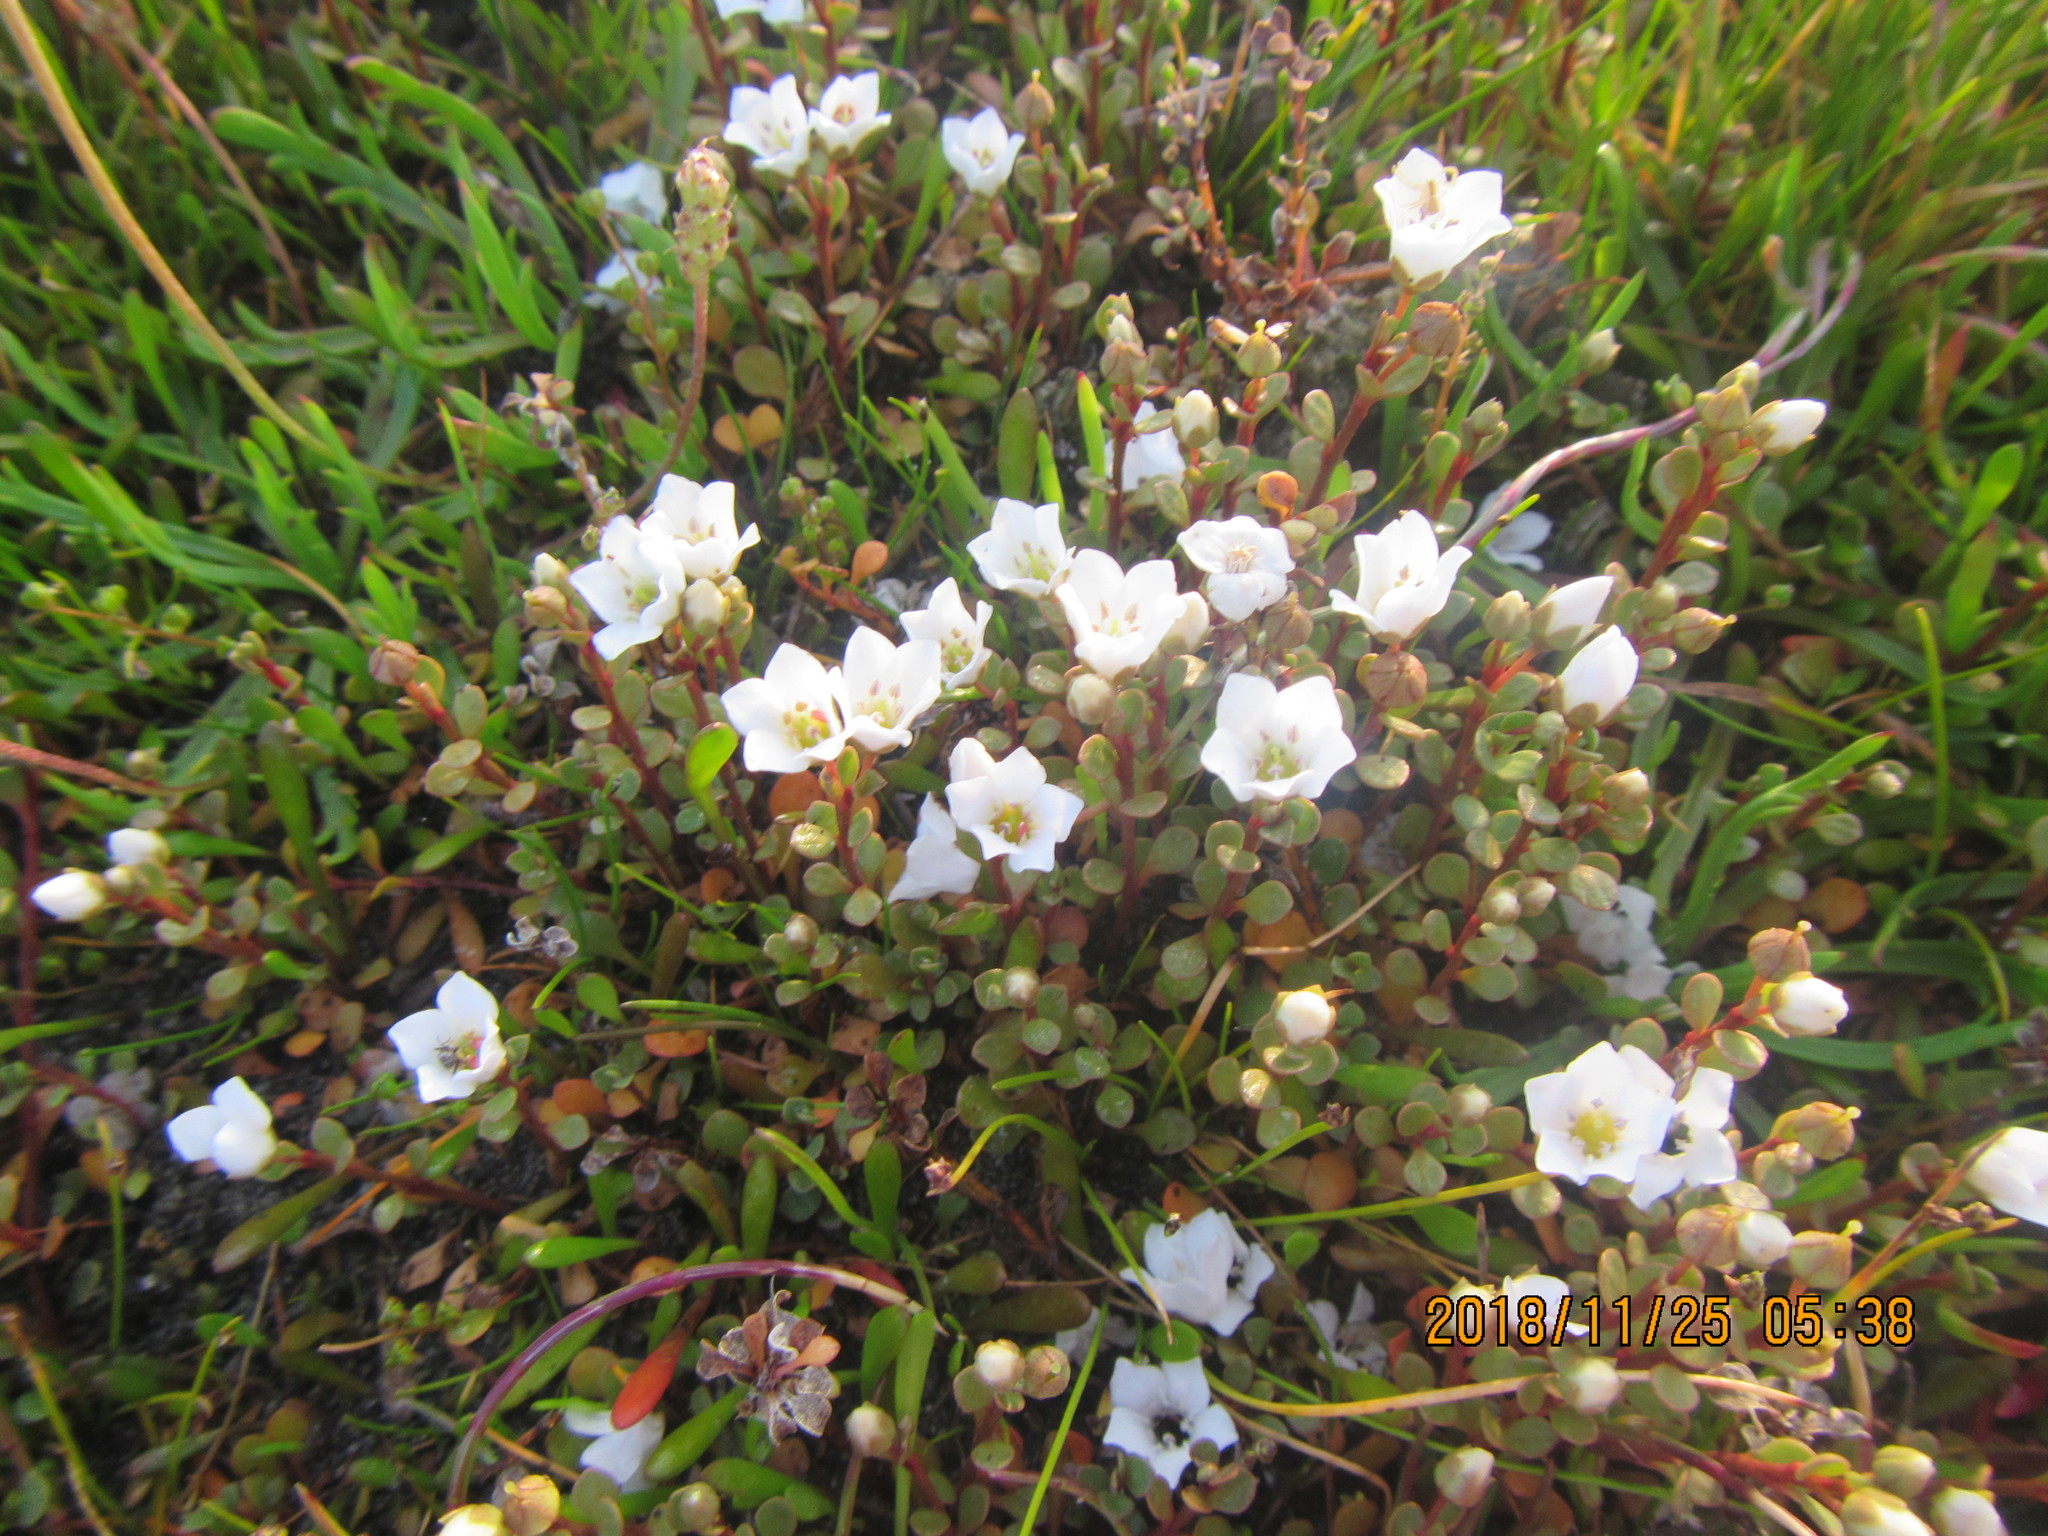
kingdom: Plantae
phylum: Tracheophyta
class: Magnoliopsida
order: Ericales
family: Primulaceae
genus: Samolus
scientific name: Samolus repens
